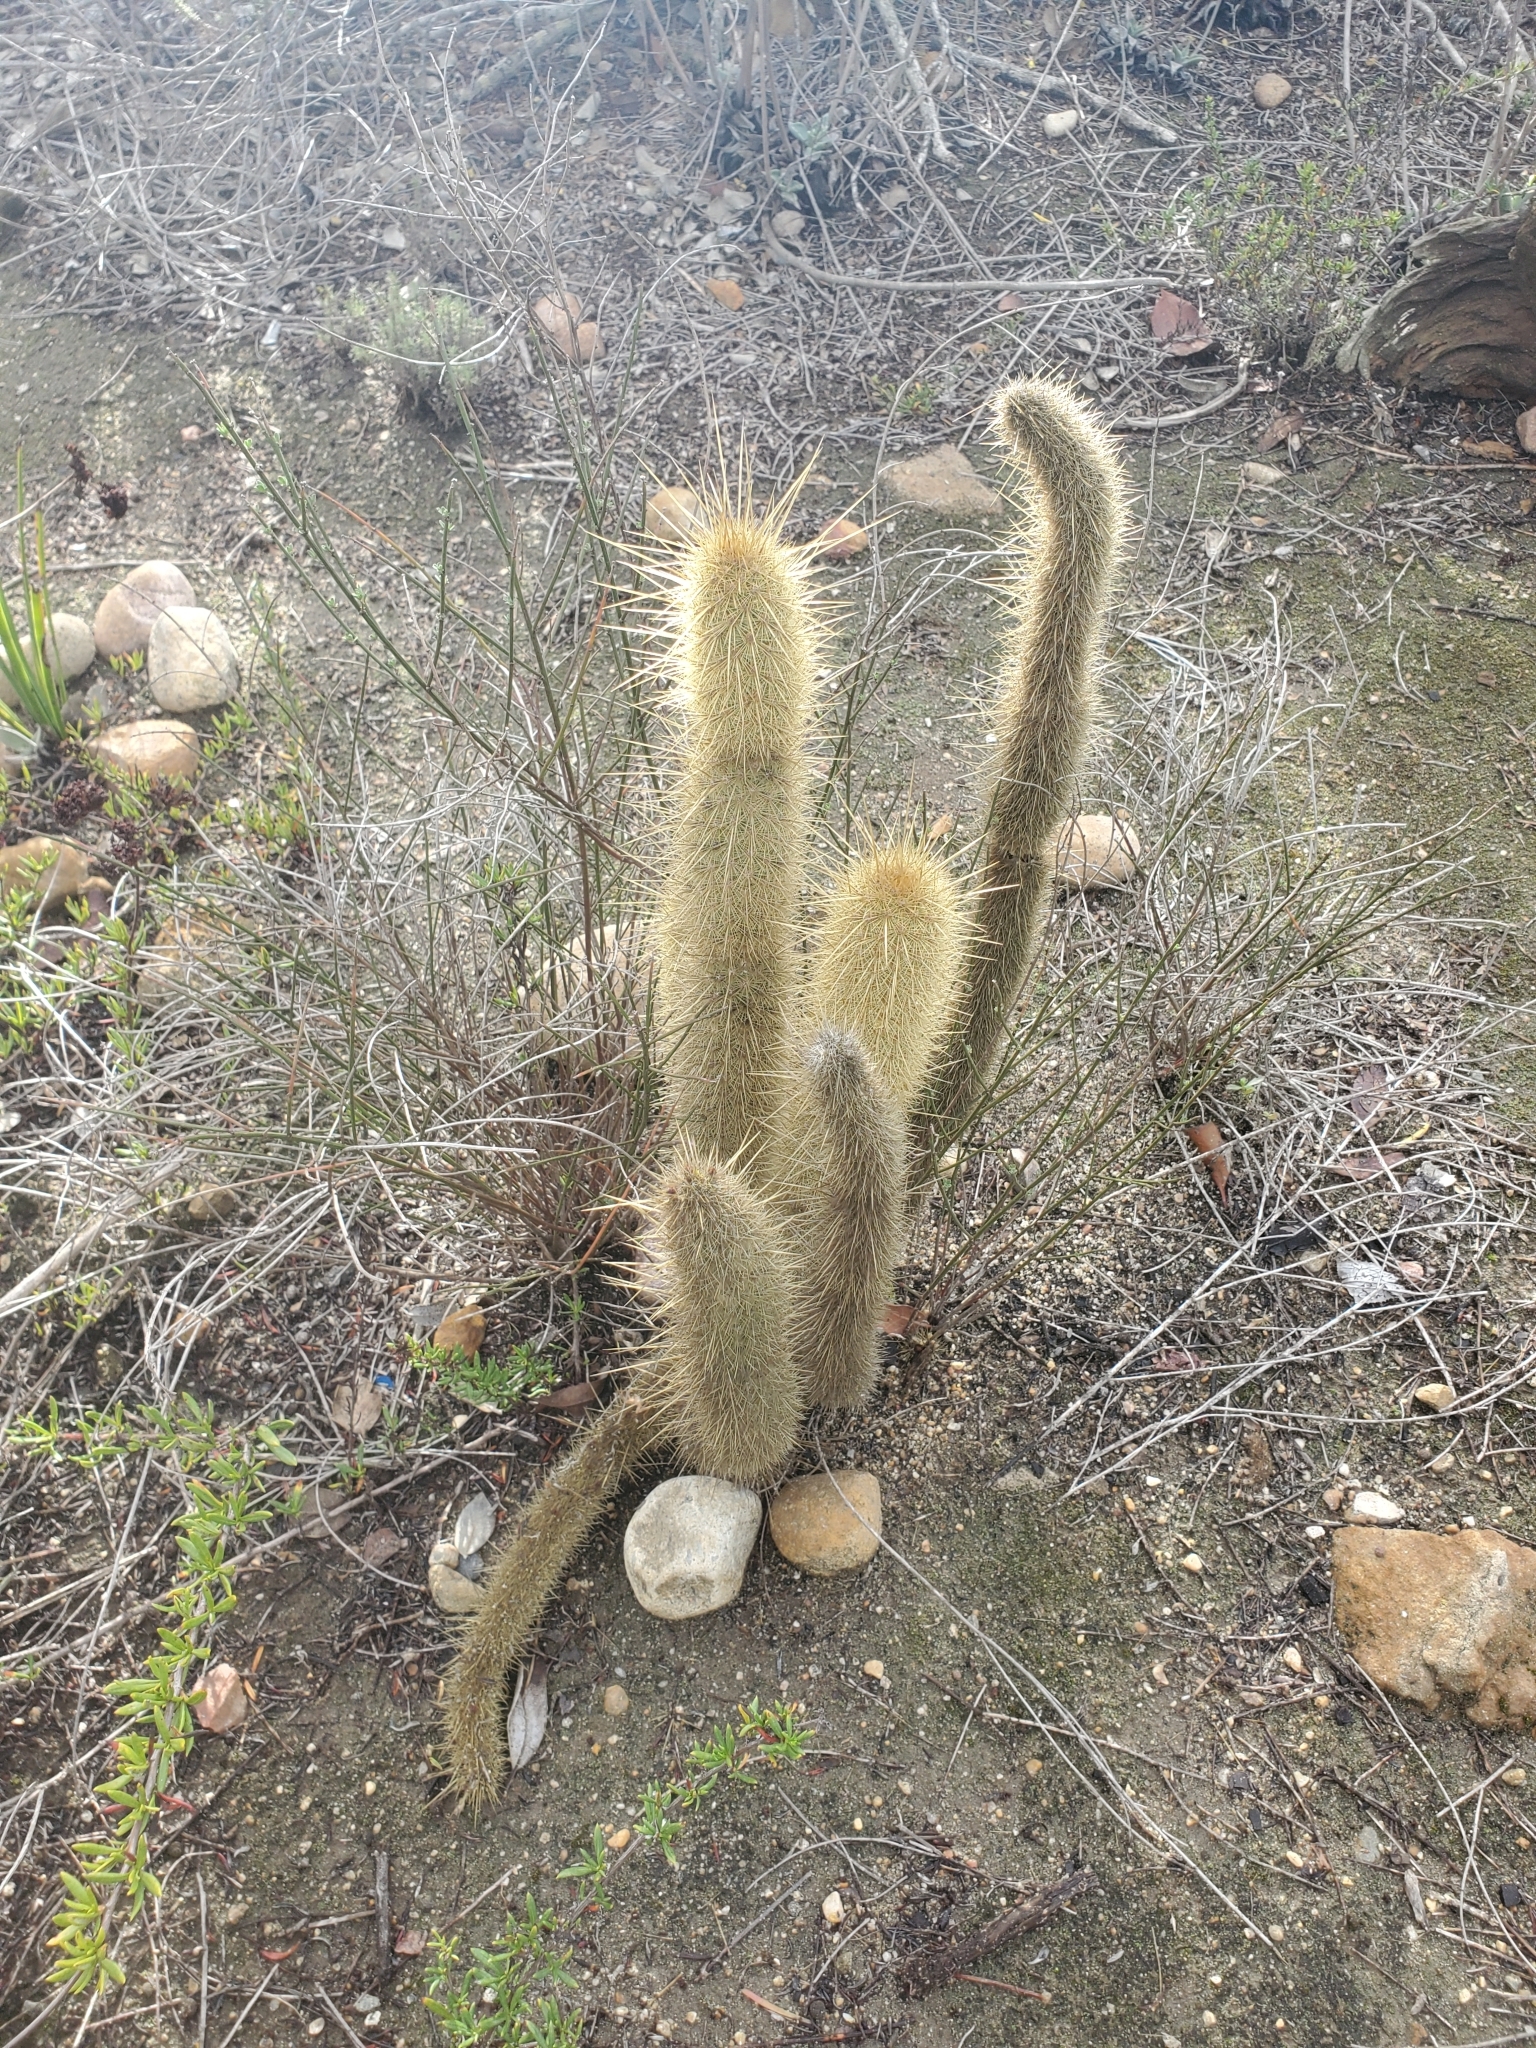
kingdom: Plantae
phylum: Tracheophyta
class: Magnoliopsida
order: Caryophyllales
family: Cactaceae
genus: Bergerocactus
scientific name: Bergerocactus emoryi
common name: Golden snakecactus
